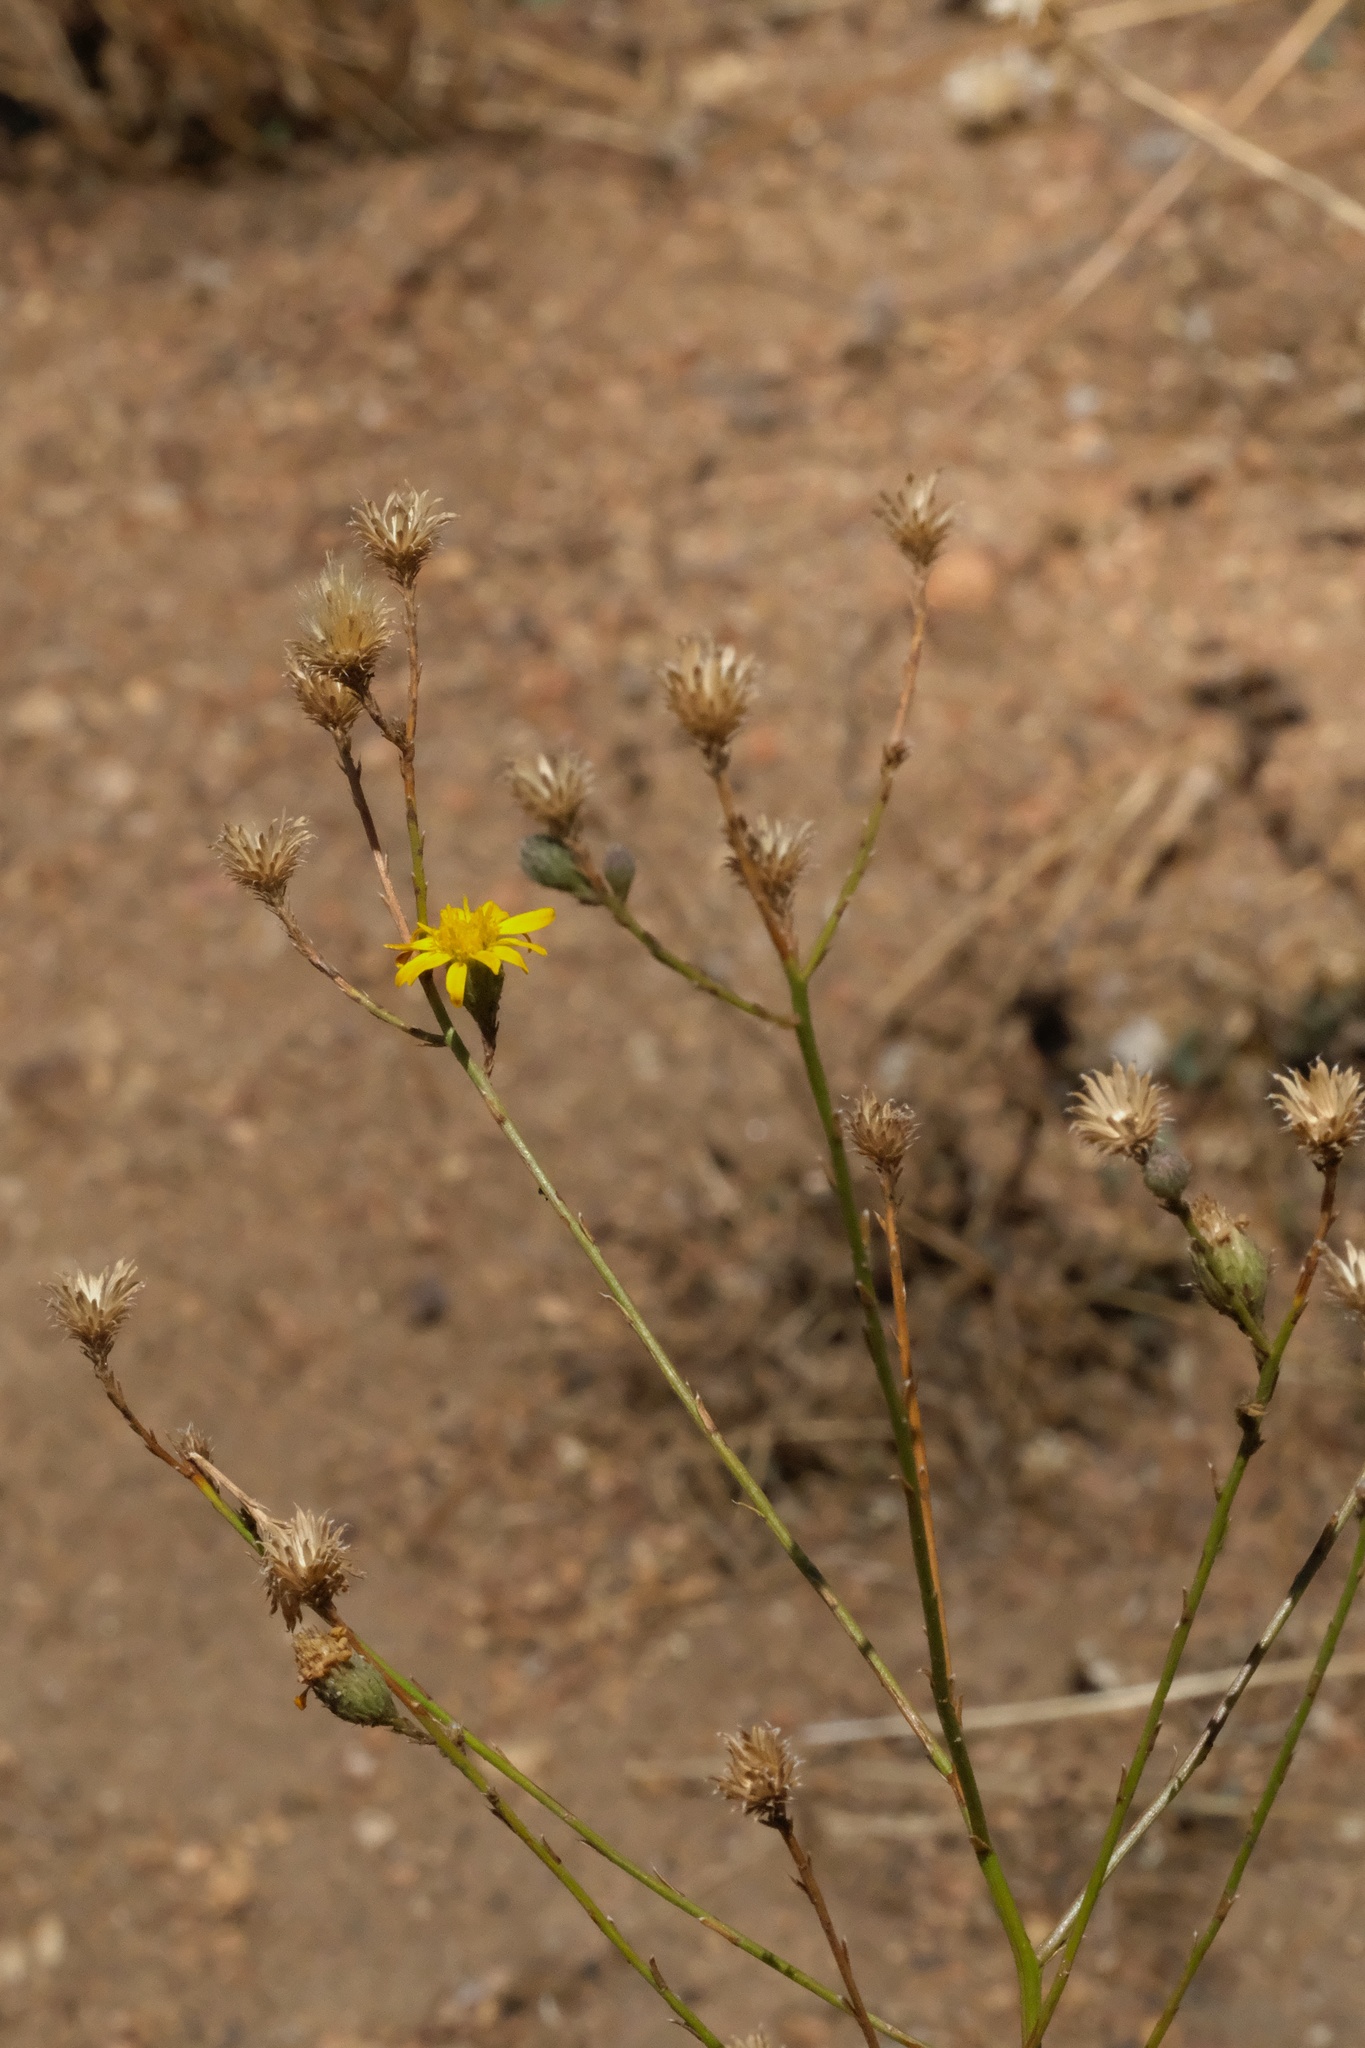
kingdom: Plantae
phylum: Tracheophyta
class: Magnoliopsida
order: Asterales
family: Asteraceae
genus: Xanthisma
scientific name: Xanthisma junceum
